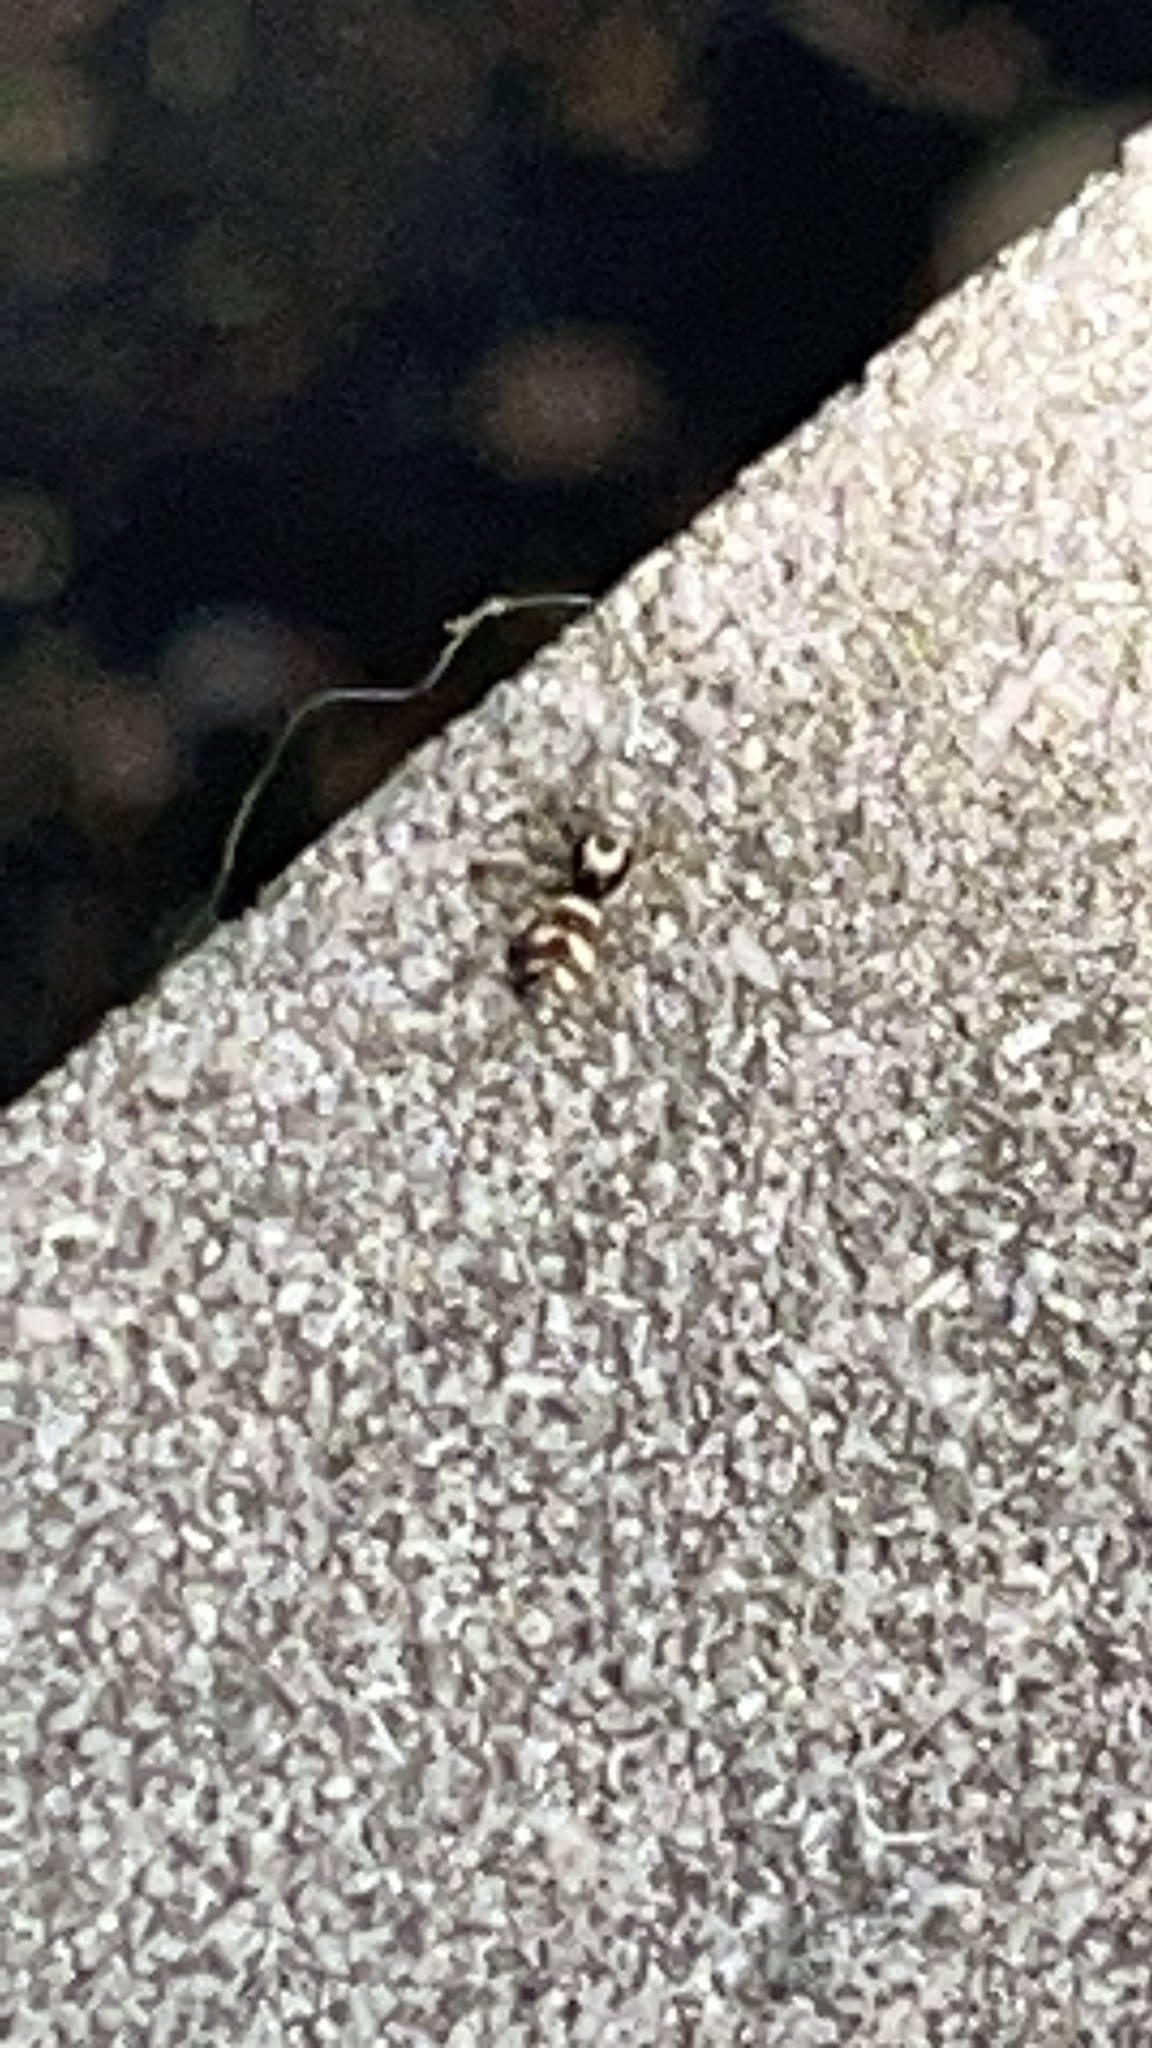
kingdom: Animalia
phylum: Arthropoda
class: Arachnida
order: Araneae
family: Salticidae
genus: Salticus
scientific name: Salticus scenicus
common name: Zebra jumper
